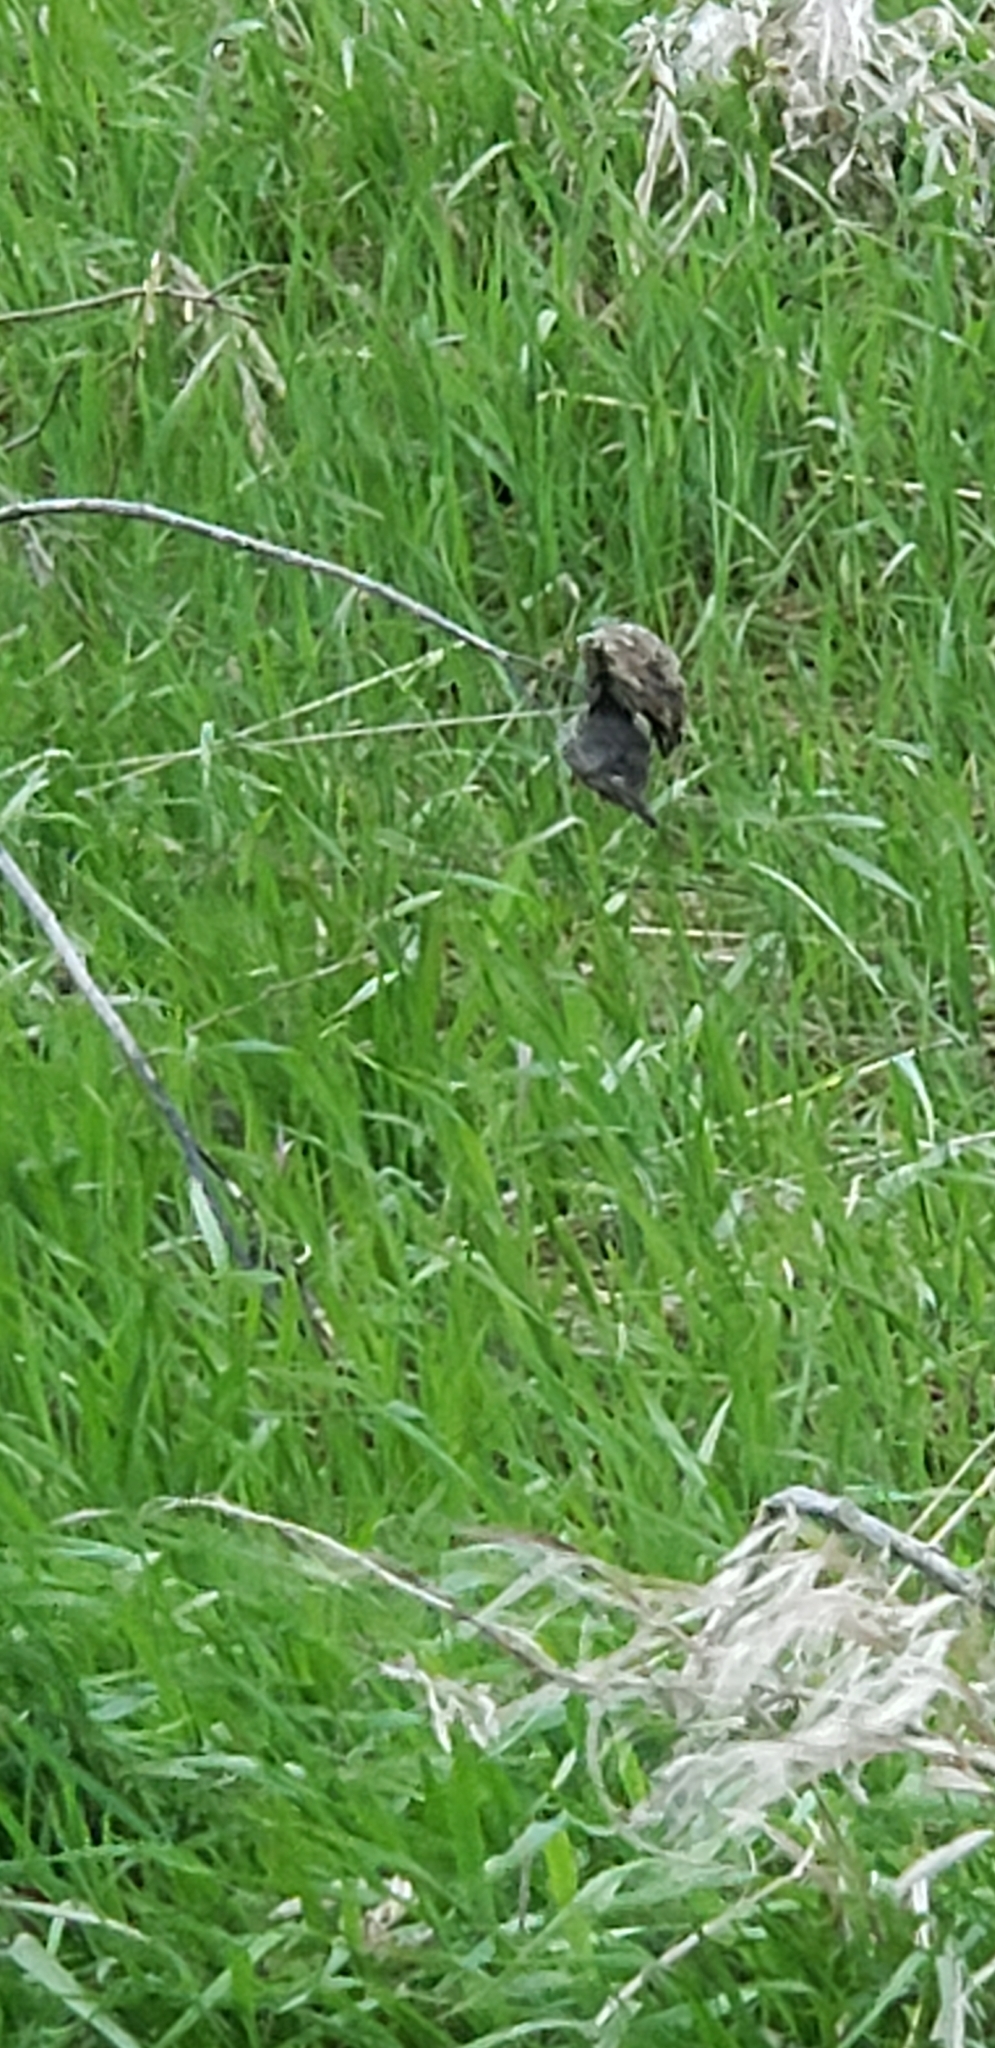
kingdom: Plantae
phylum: Tracheophyta
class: Magnoliopsida
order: Gentianales
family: Apocynaceae
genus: Asclepias
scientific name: Asclepias syriaca
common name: Common milkweed
